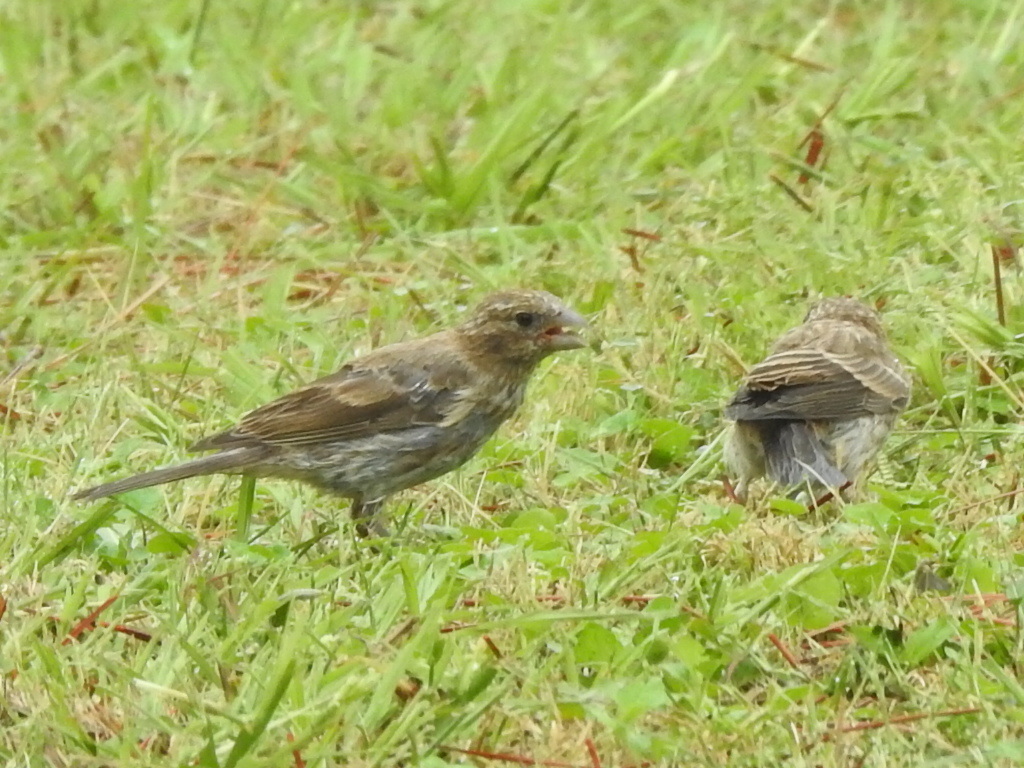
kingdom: Animalia
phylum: Chordata
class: Aves
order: Passeriformes
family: Fringillidae
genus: Haemorhous
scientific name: Haemorhous mexicanus
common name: House finch
